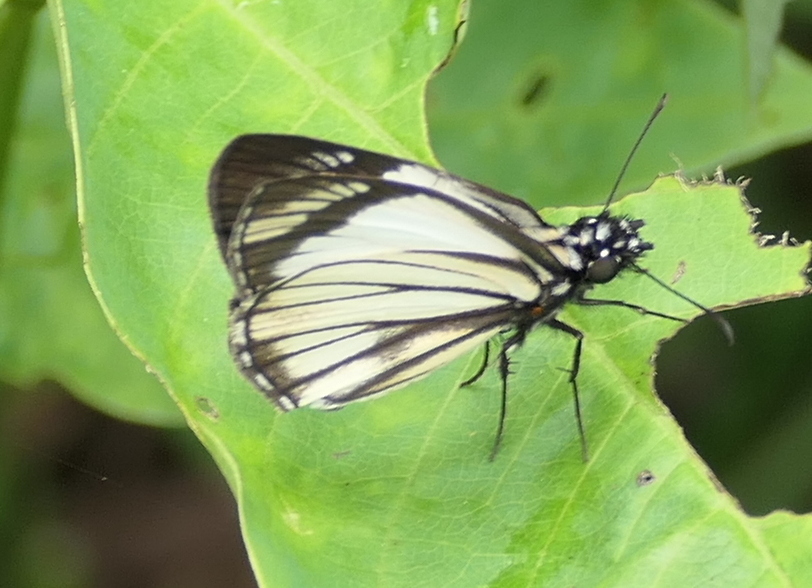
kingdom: Animalia
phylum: Arthropoda
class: Insecta
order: Lepidoptera
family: Hesperiidae
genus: Heliopetes
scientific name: Heliopetes alana
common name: Alana white-skipper
